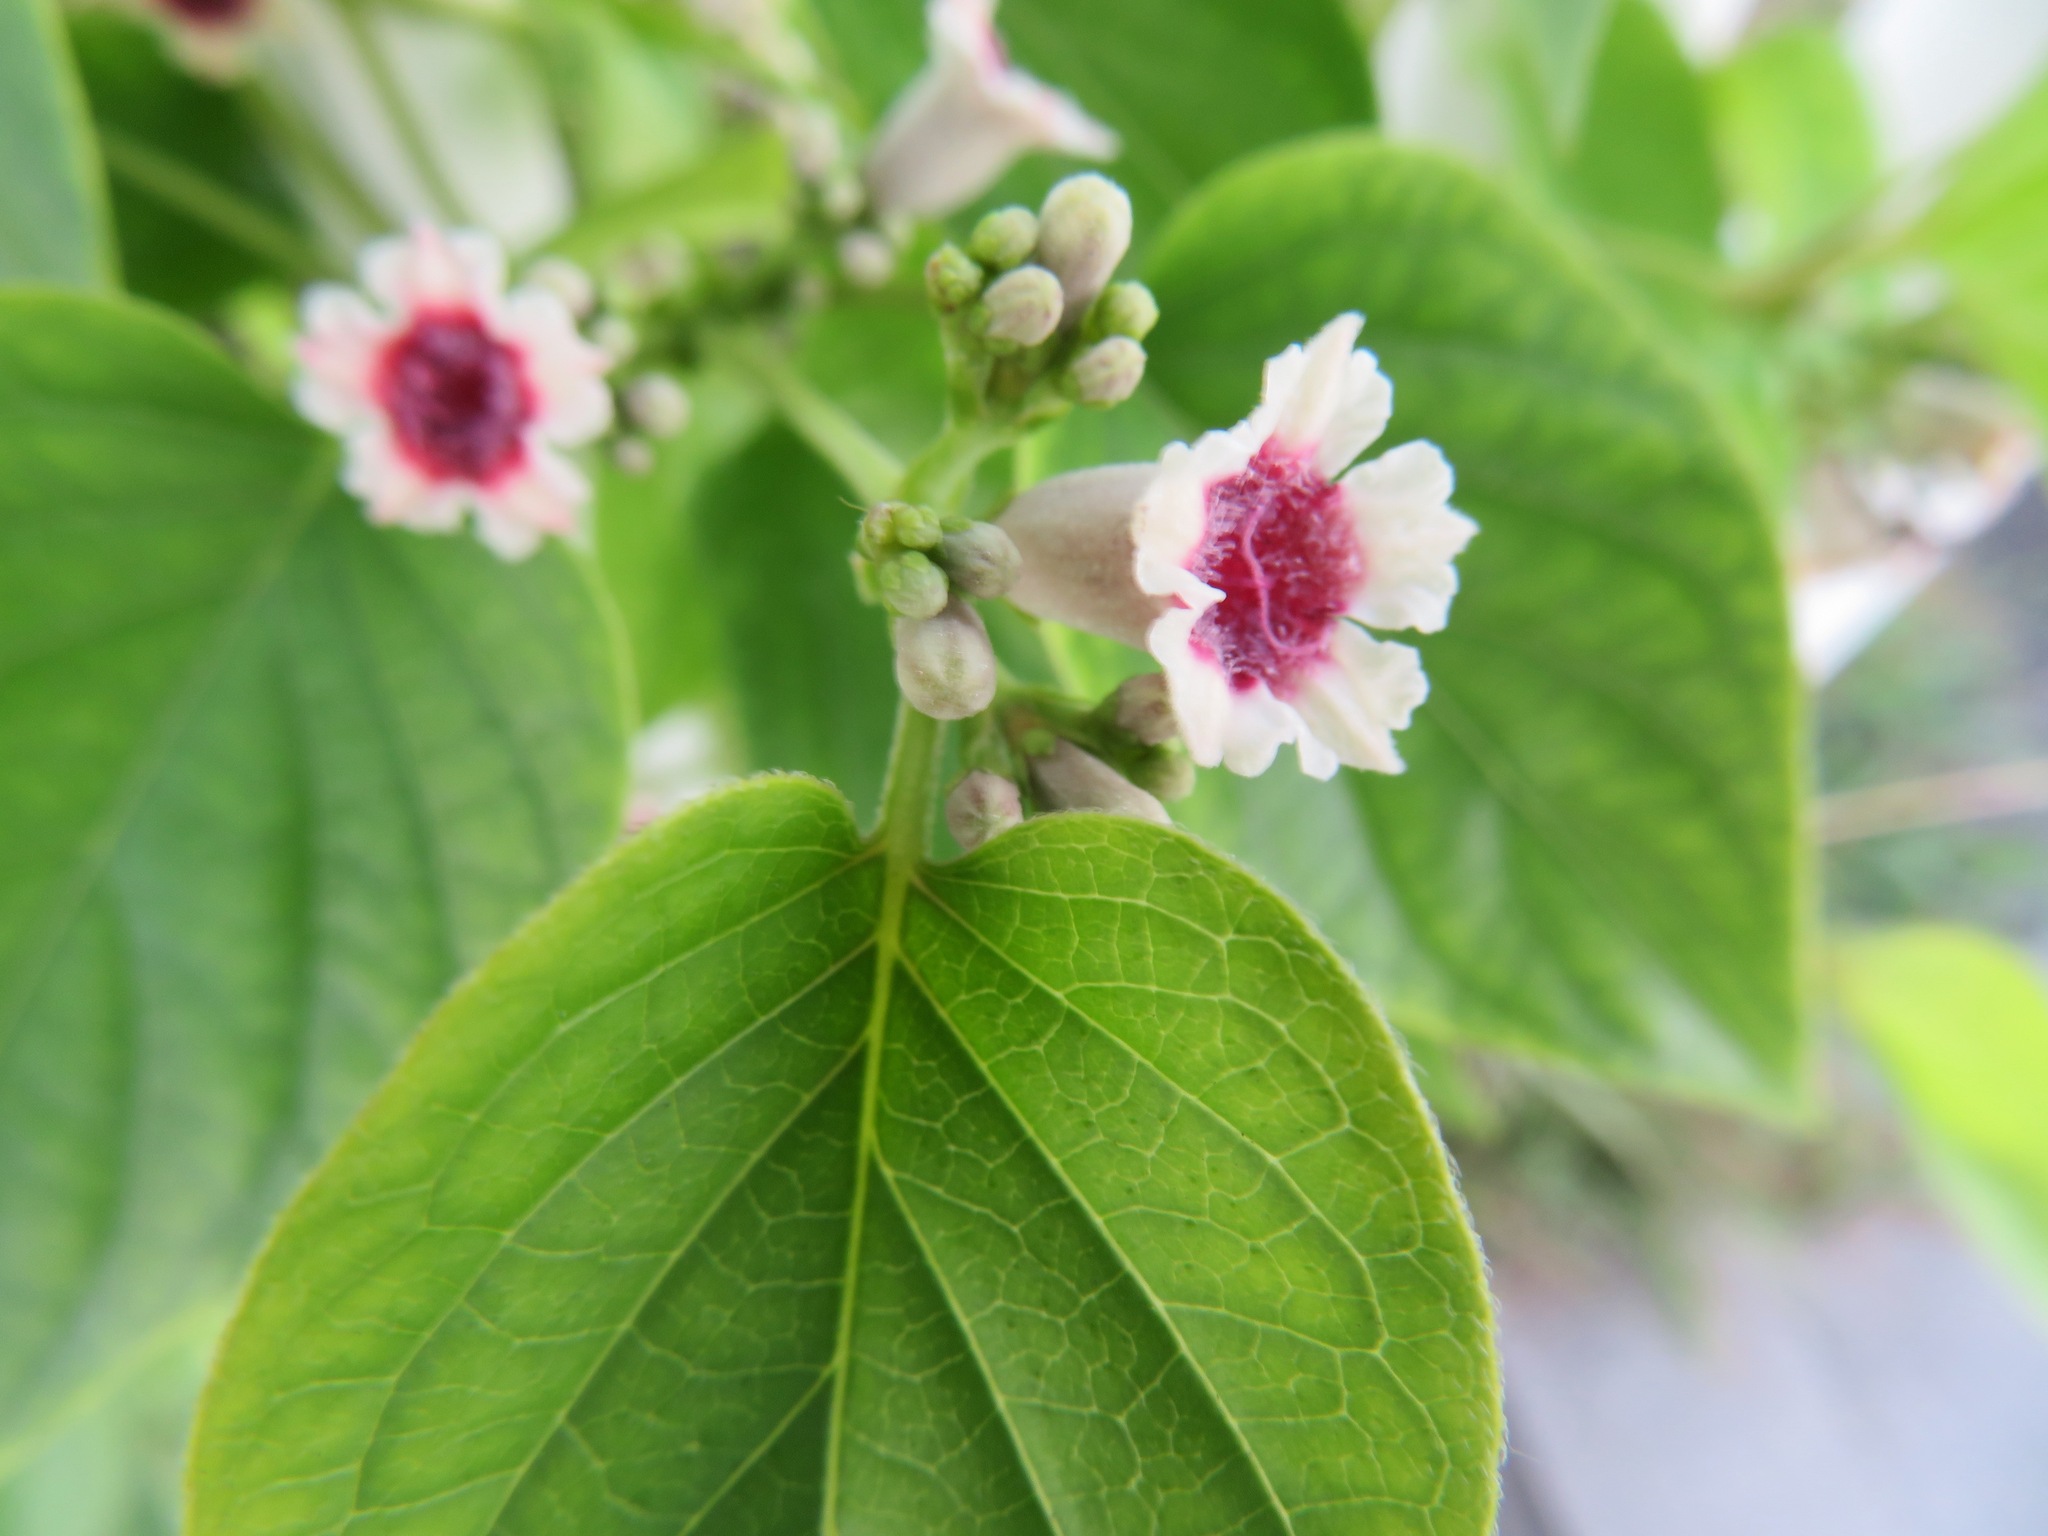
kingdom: Plantae
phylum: Tracheophyta
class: Magnoliopsida
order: Gentianales
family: Rubiaceae
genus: Paederia
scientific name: Paederia foetida
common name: Stinkvine
